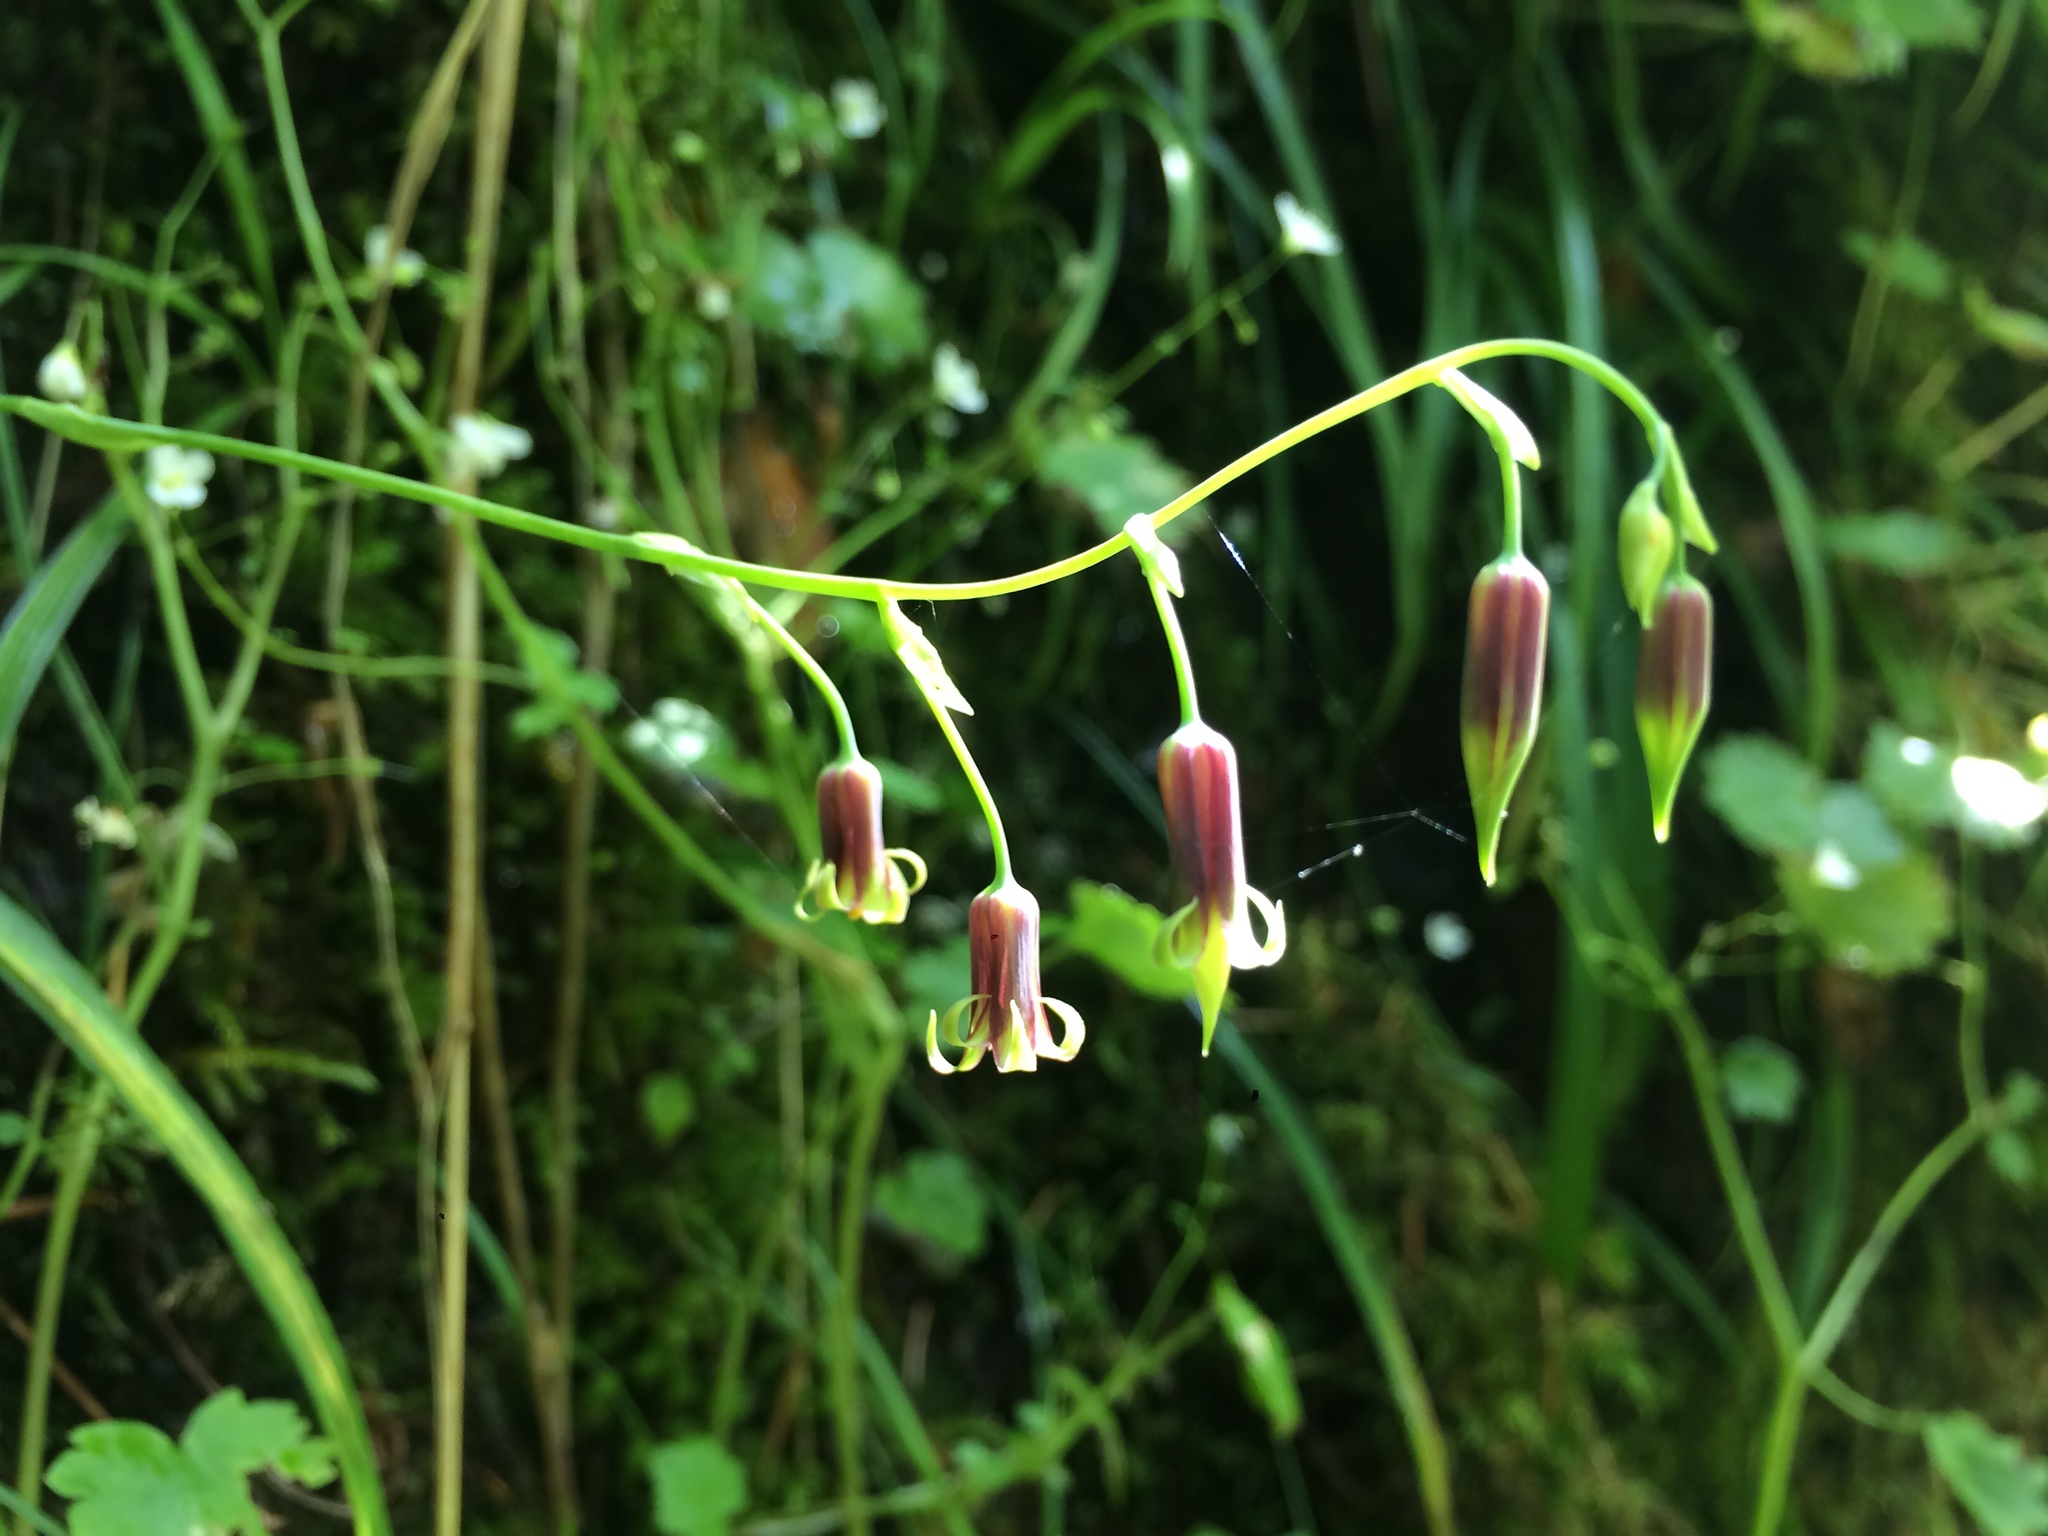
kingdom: Plantae
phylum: Tracheophyta
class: Liliopsida
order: Liliales
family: Melanthiaceae
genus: Anticlea
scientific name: Anticlea occidentalis
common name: Bronze-bells
